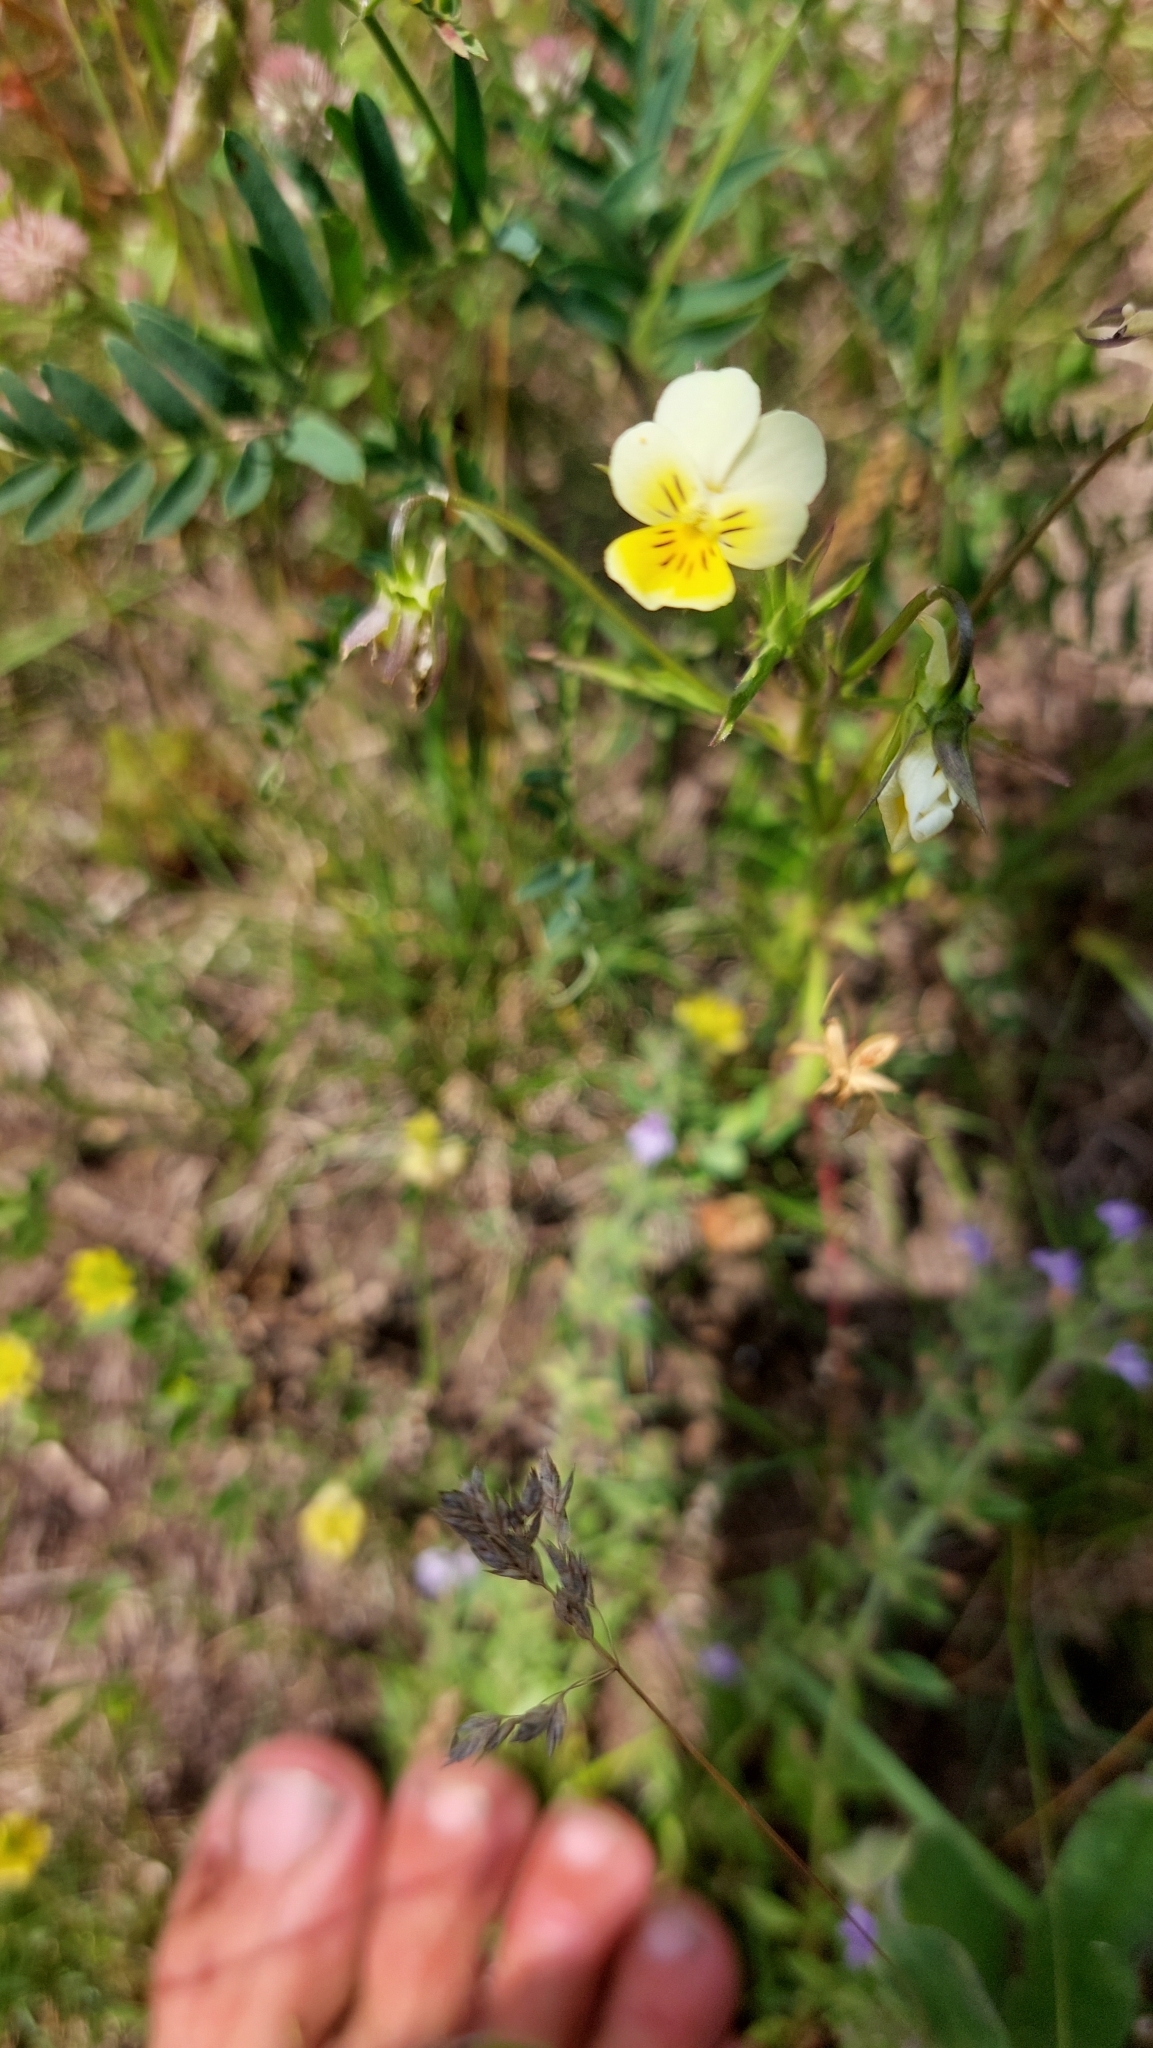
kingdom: Plantae
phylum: Tracheophyta
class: Magnoliopsida
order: Malpighiales
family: Violaceae
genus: Viola
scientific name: Viola arvensis
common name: Field pansy
